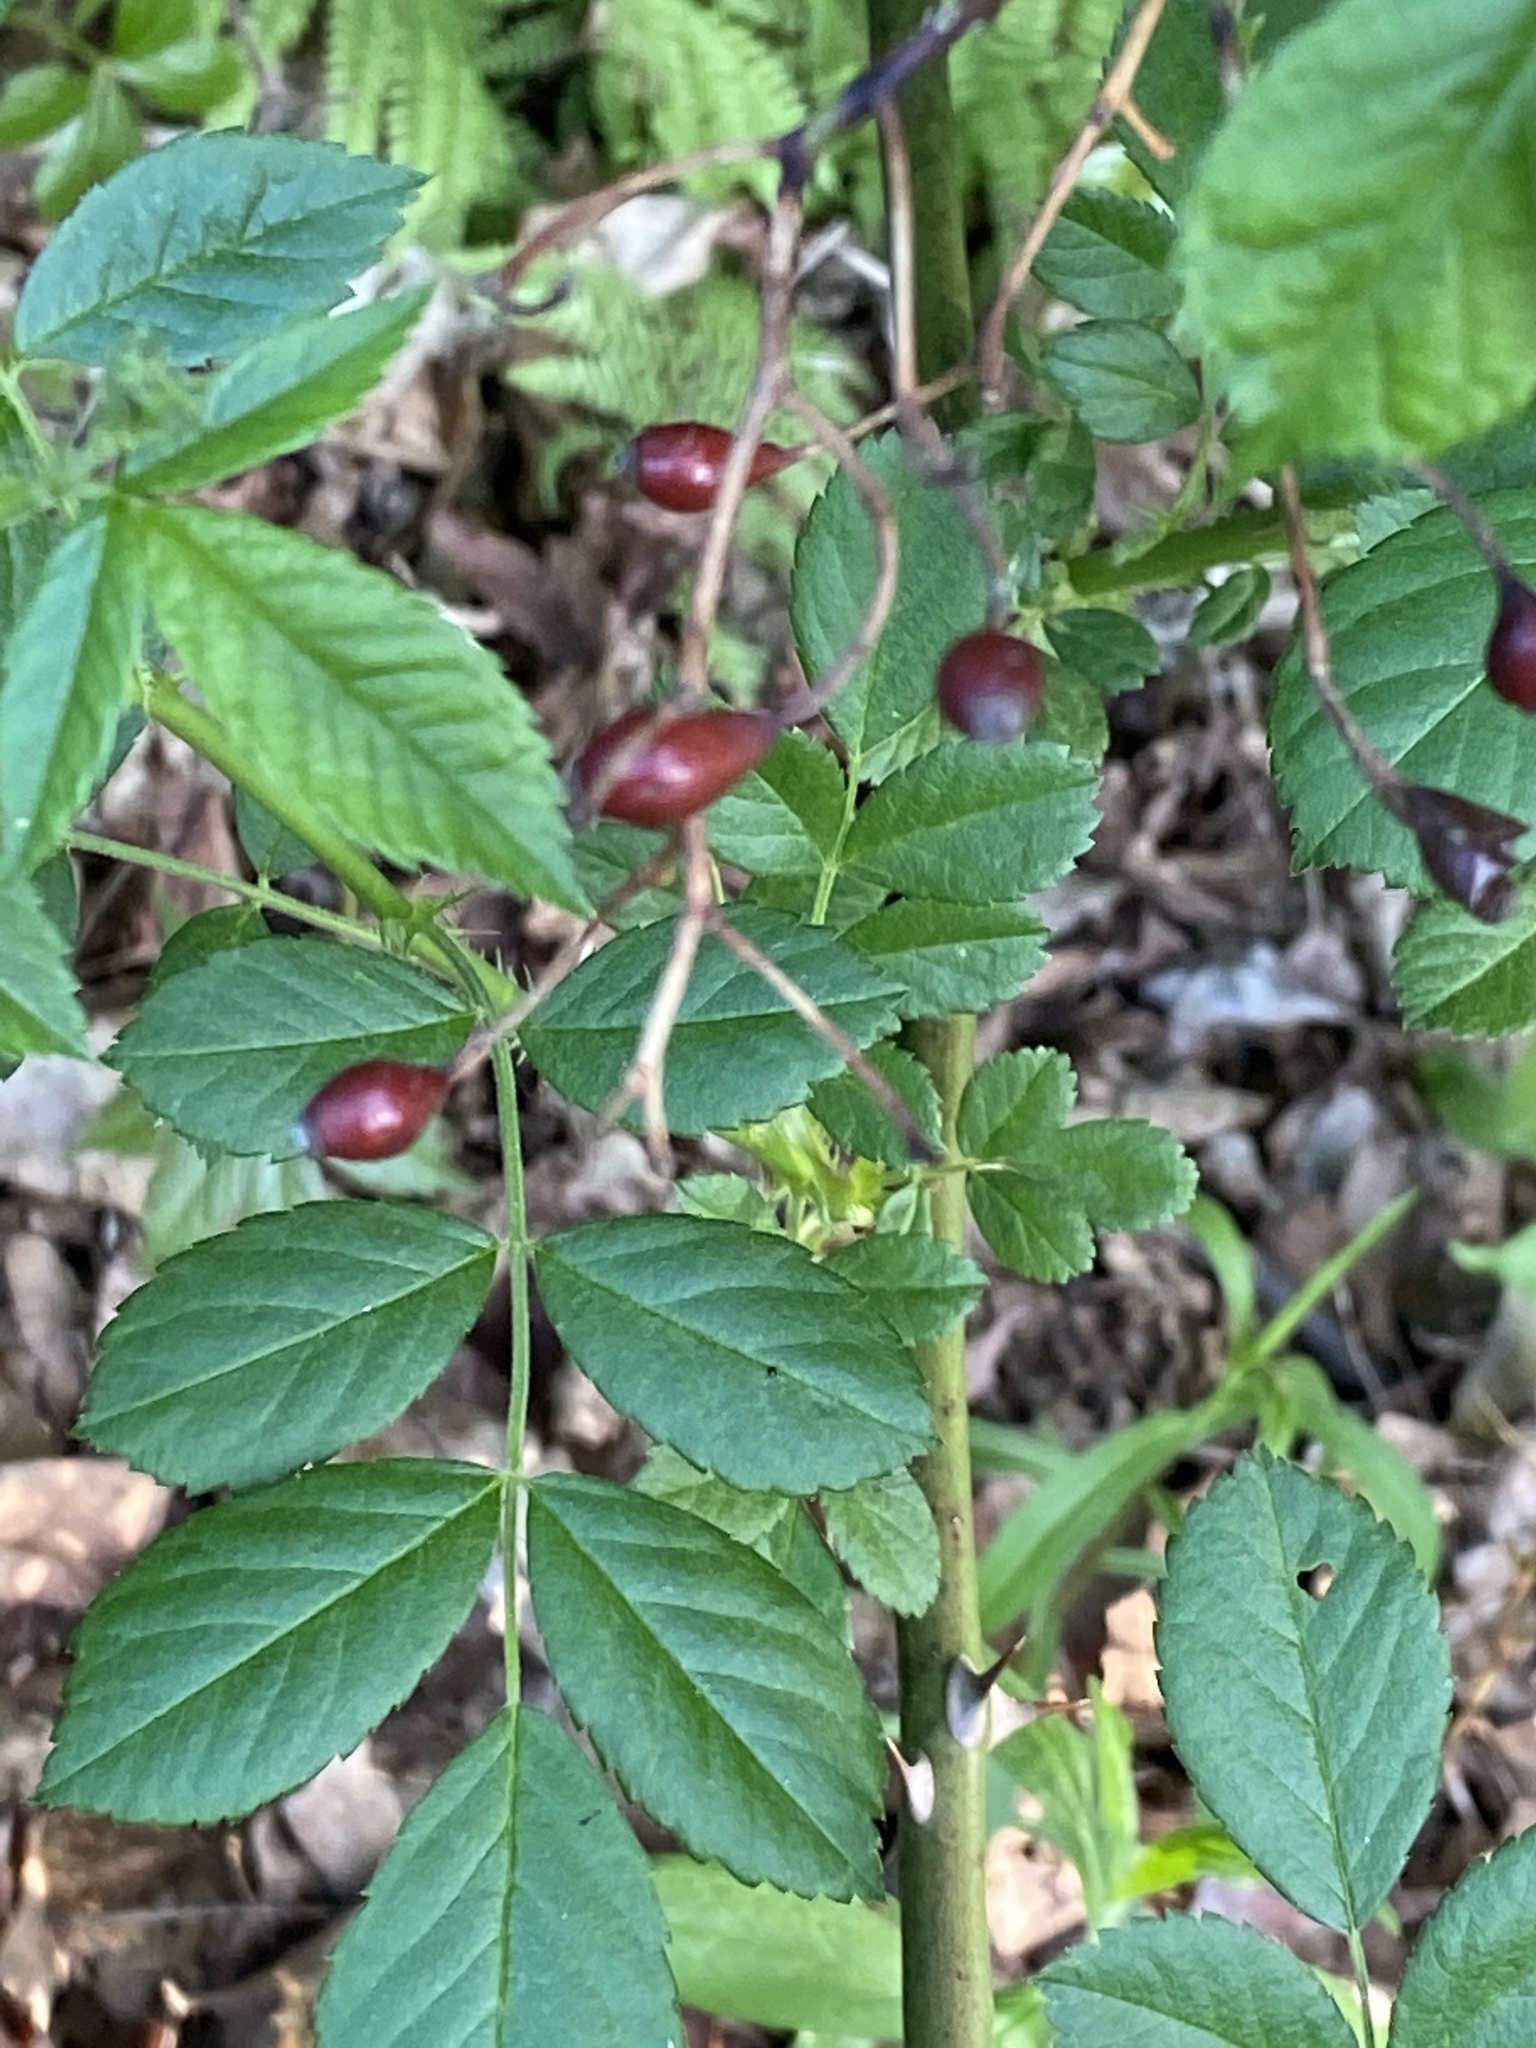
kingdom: Plantae
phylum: Tracheophyta
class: Magnoliopsida
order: Rosales
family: Rosaceae
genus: Rosa
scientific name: Rosa multiflora
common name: Multiflora rose
